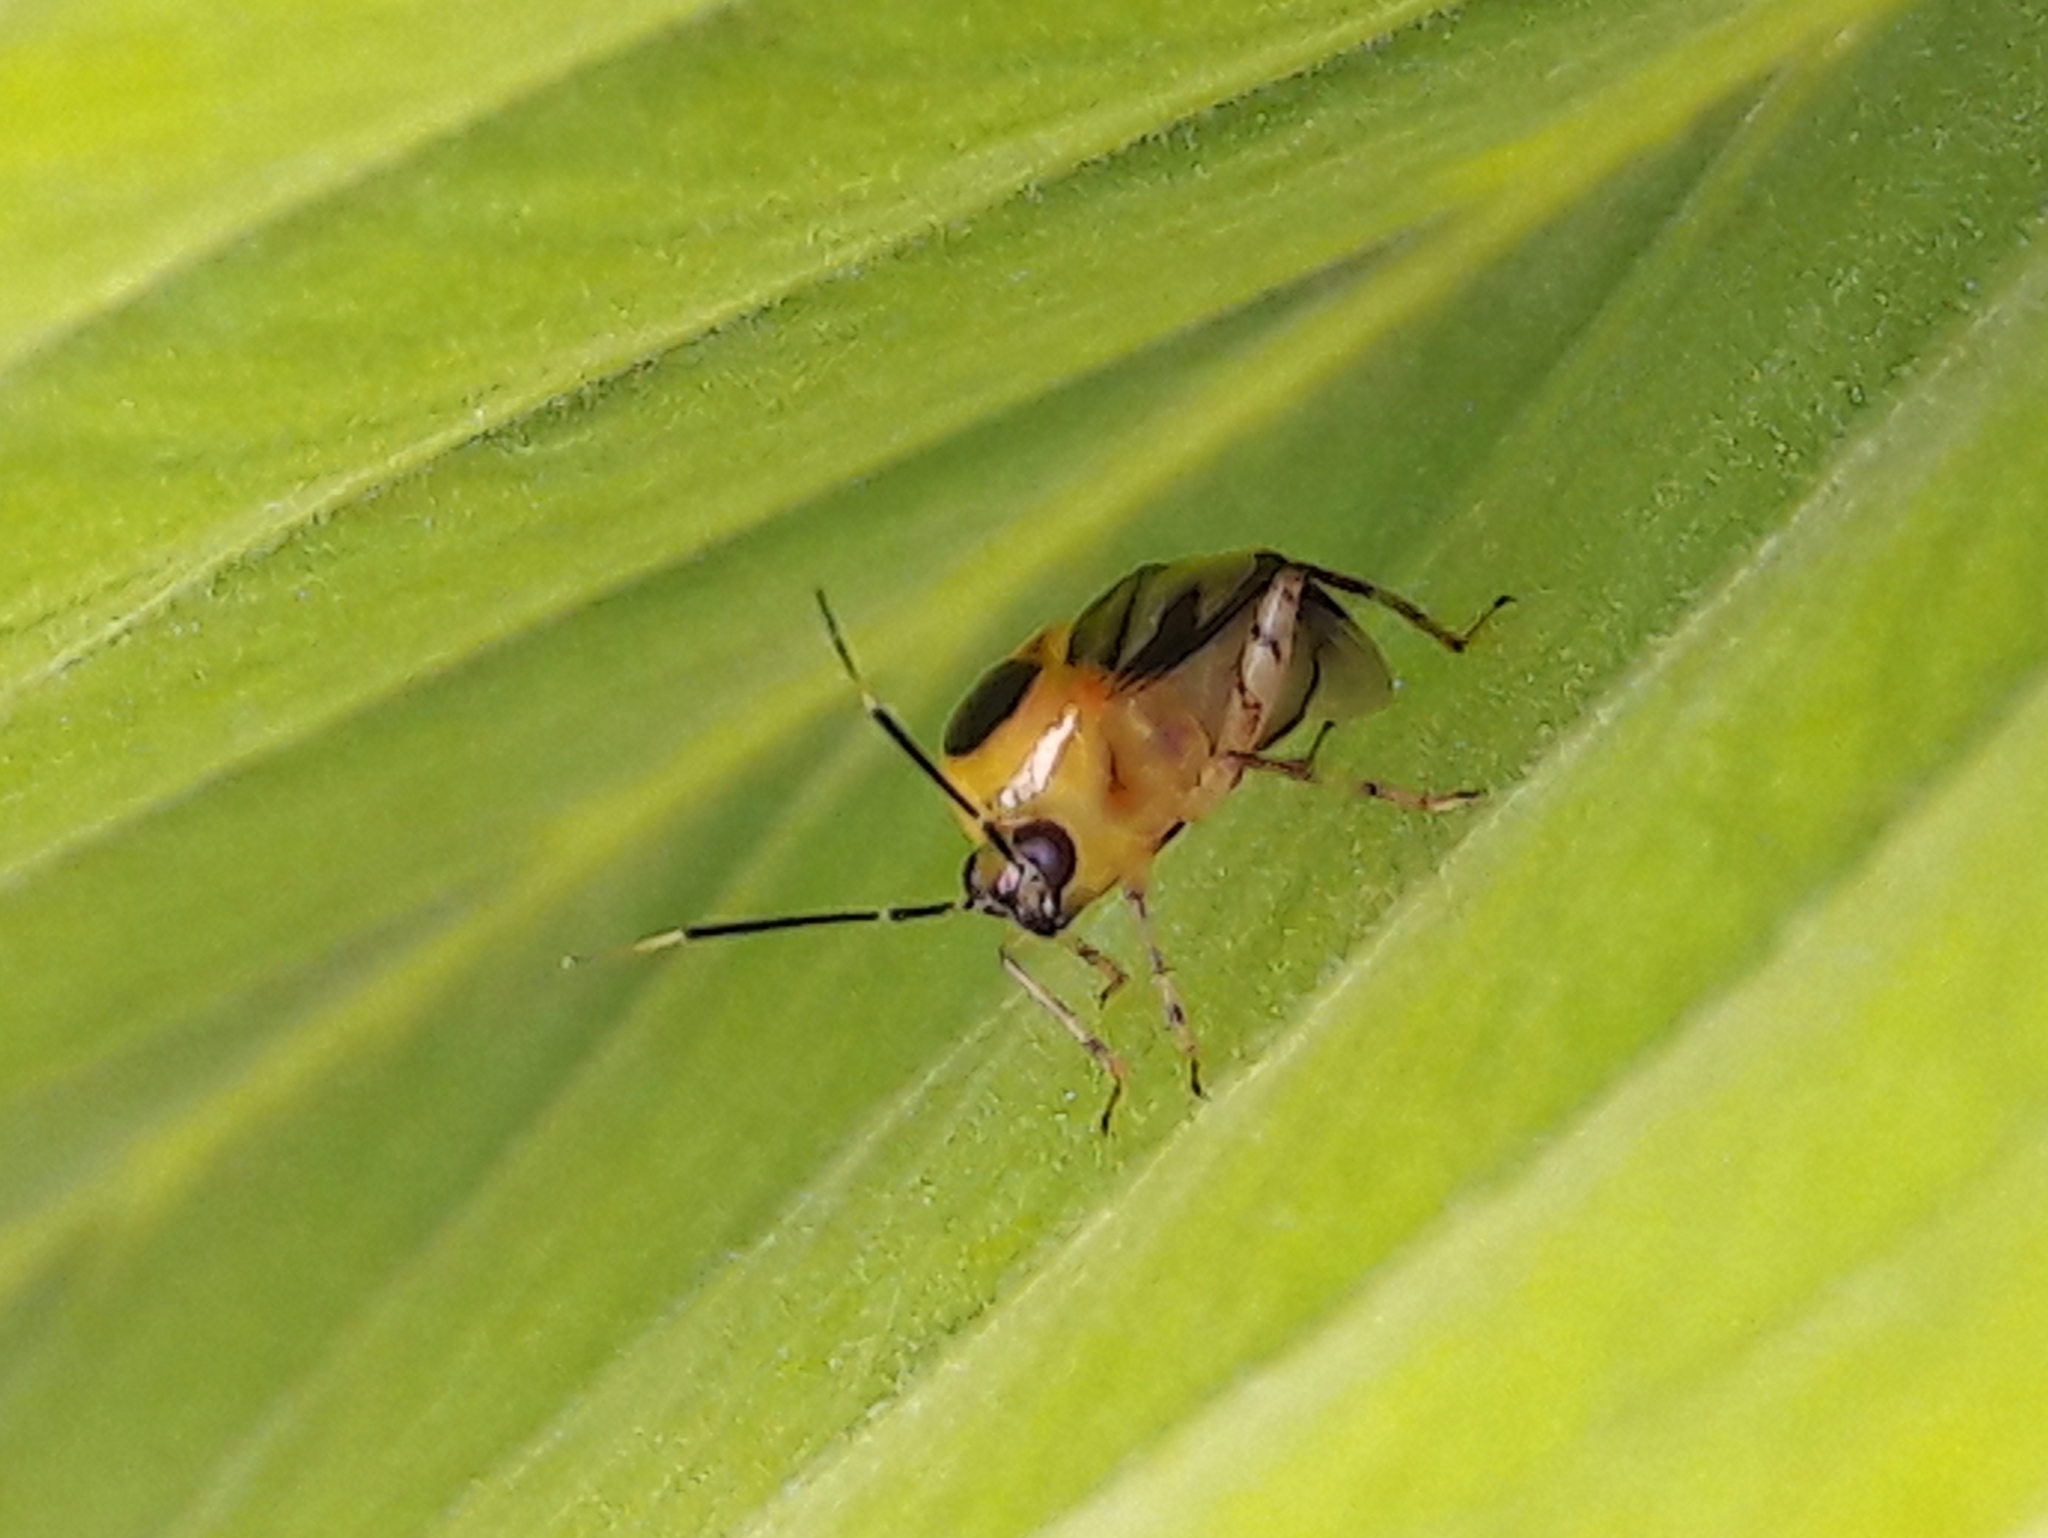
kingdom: Animalia
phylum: Arthropoda
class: Insecta
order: Hemiptera
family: Miridae
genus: Horciasoides
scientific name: Horciasoides notatus
